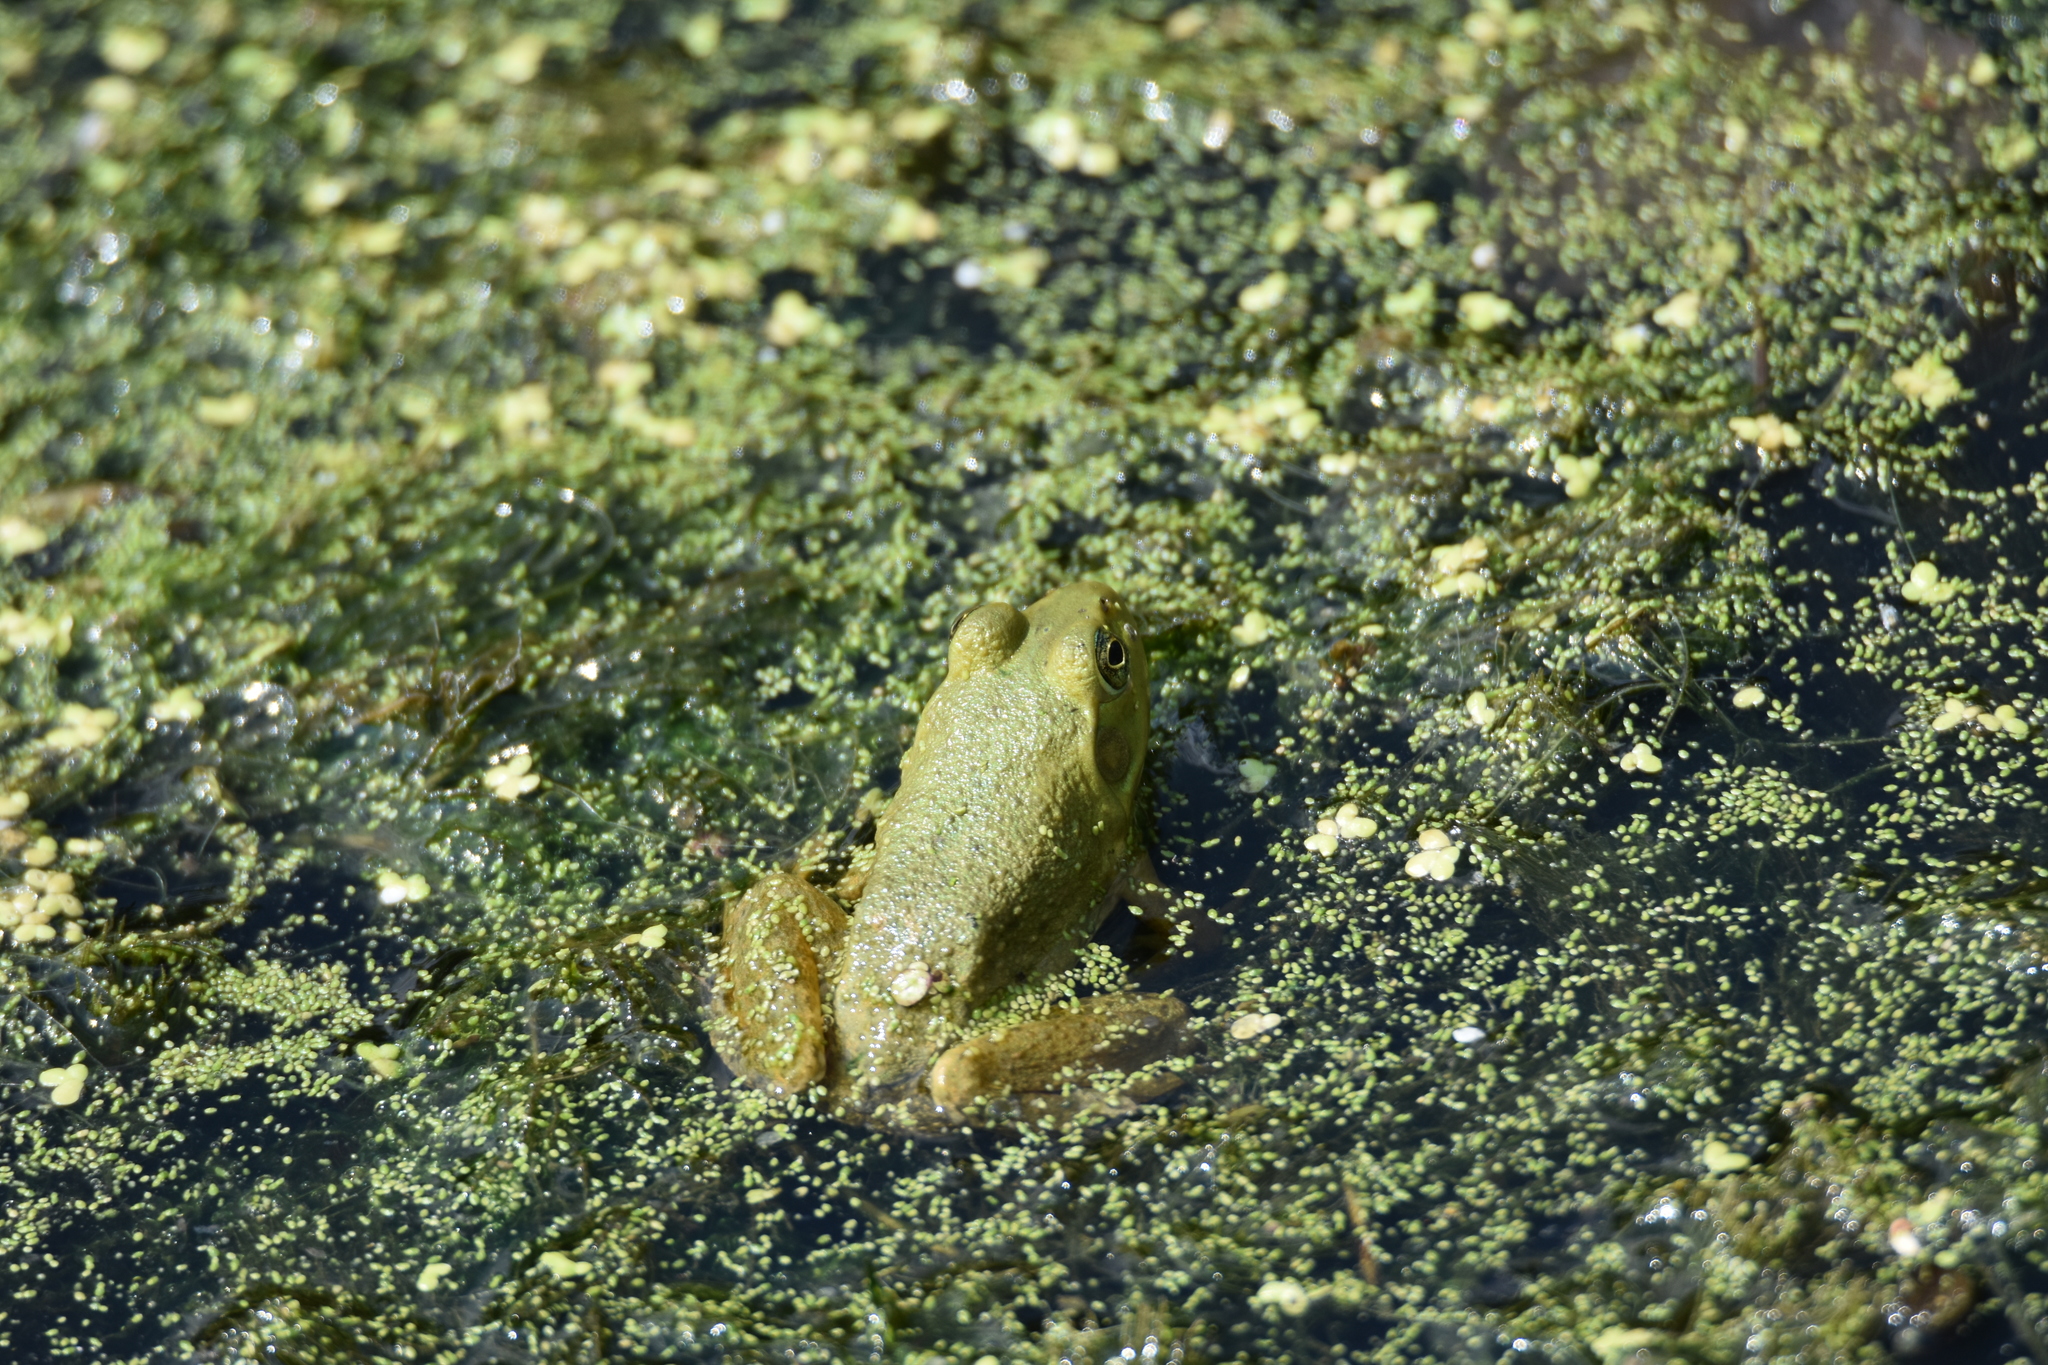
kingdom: Animalia
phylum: Chordata
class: Amphibia
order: Anura
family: Ranidae
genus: Lithobates
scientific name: Lithobates catesbeianus
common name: American bullfrog
